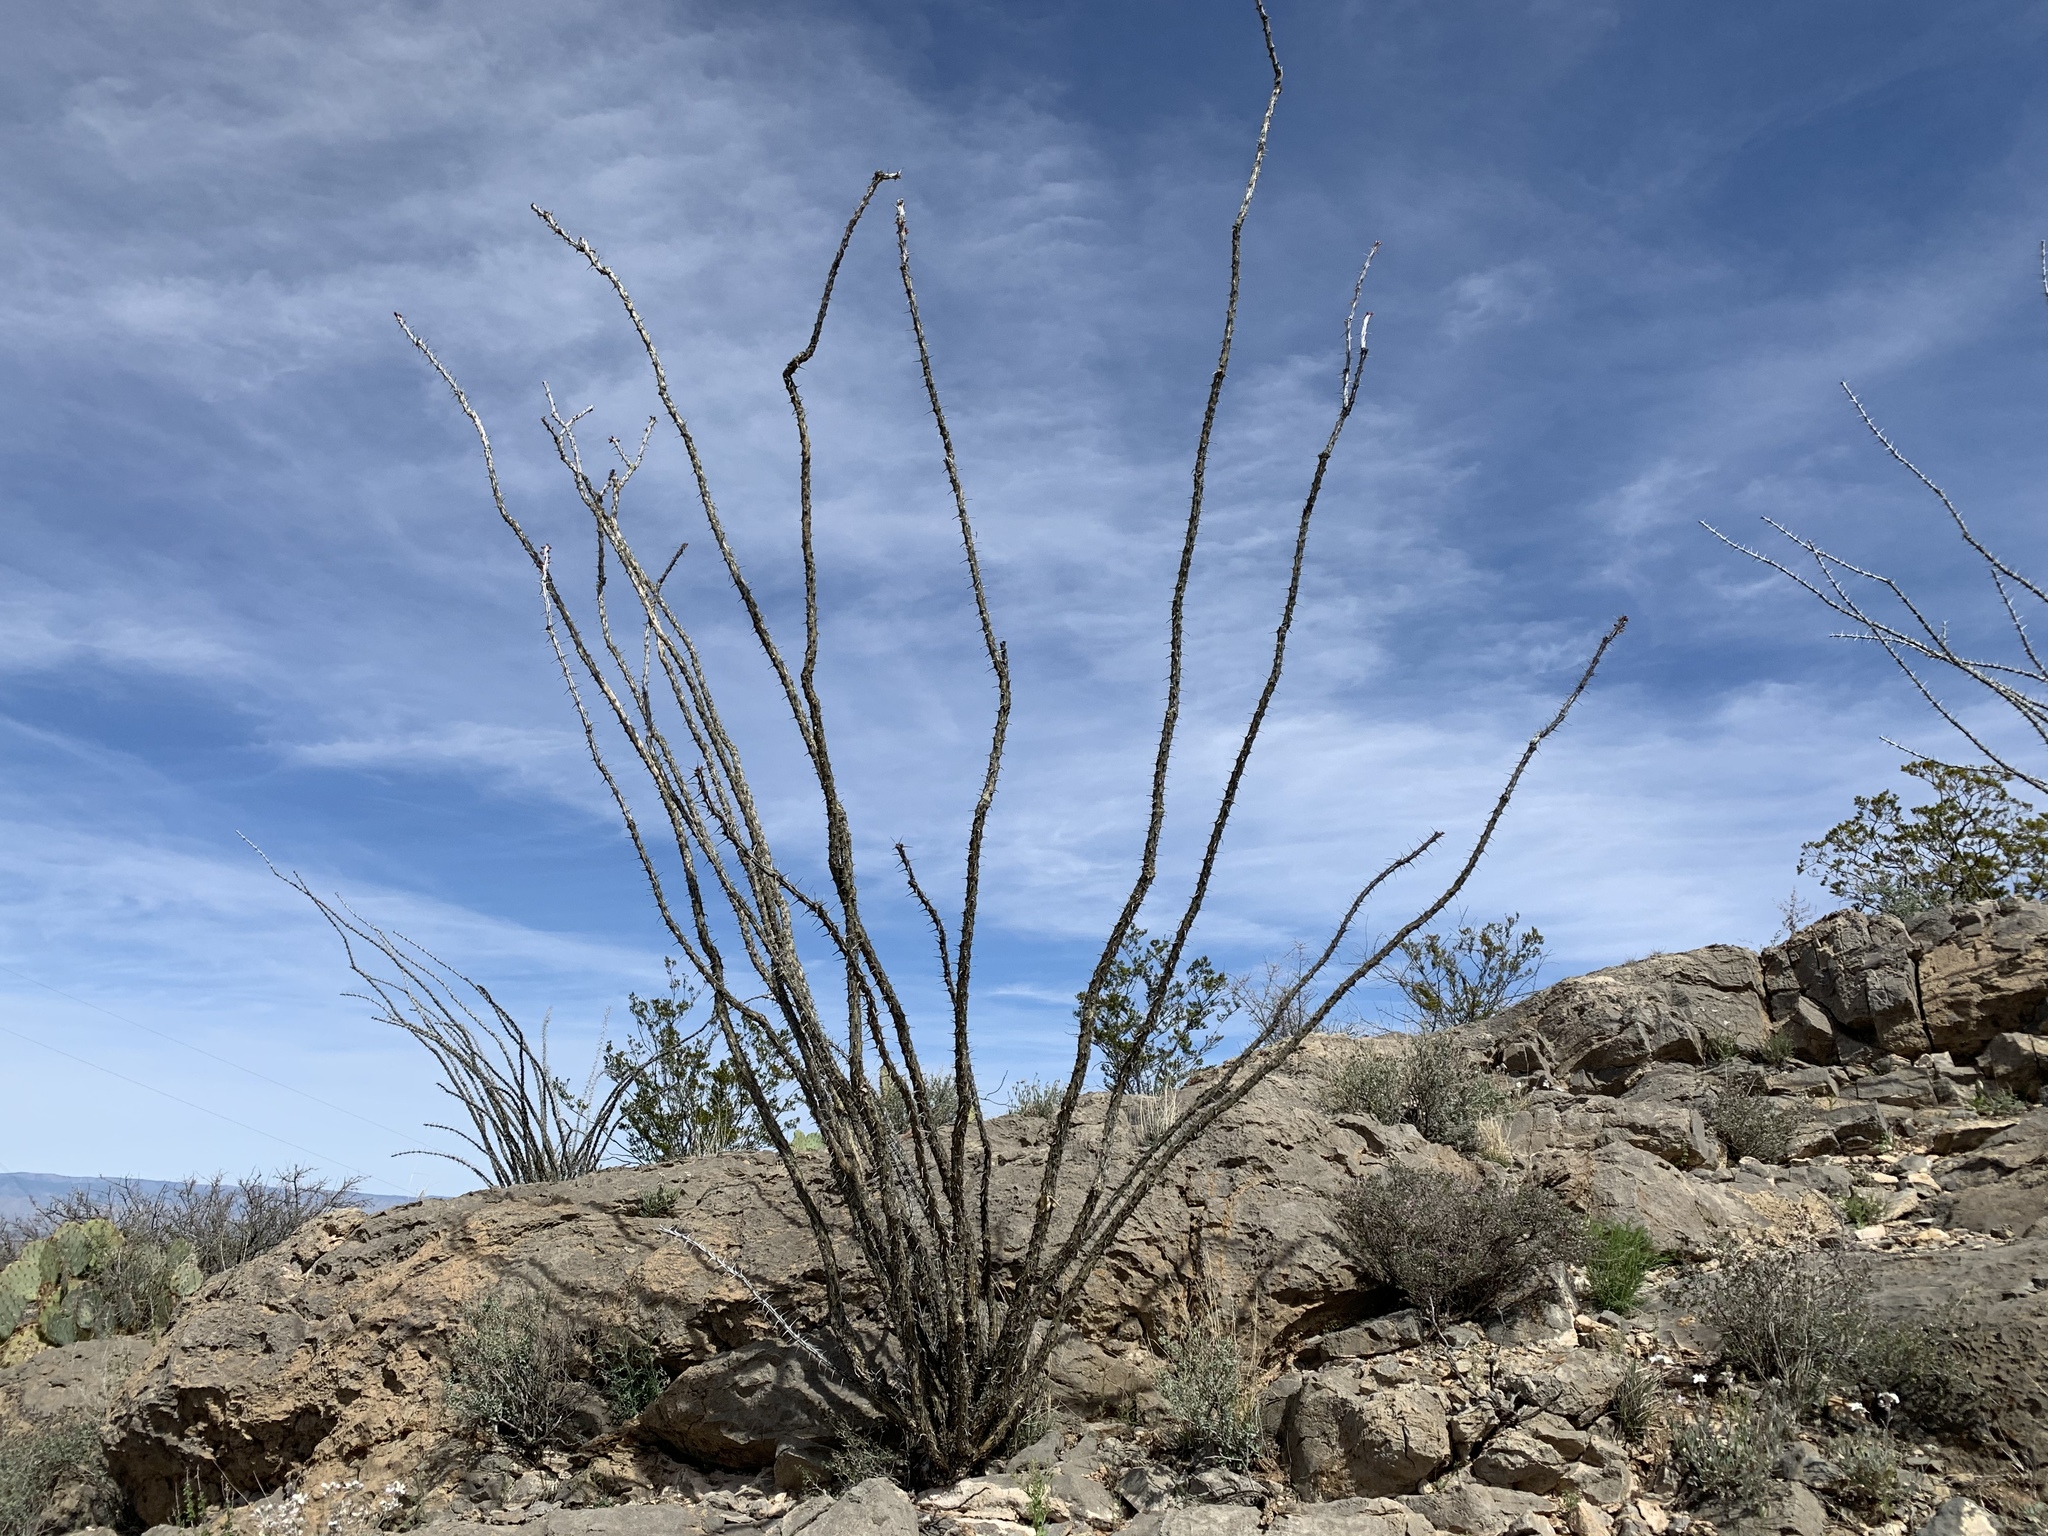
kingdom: Plantae
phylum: Tracheophyta
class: Magnoliopsida
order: Ericales
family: Fouquieriaceae
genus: Fouquieria
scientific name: Fouquieria splendens
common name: Vine-cactus
